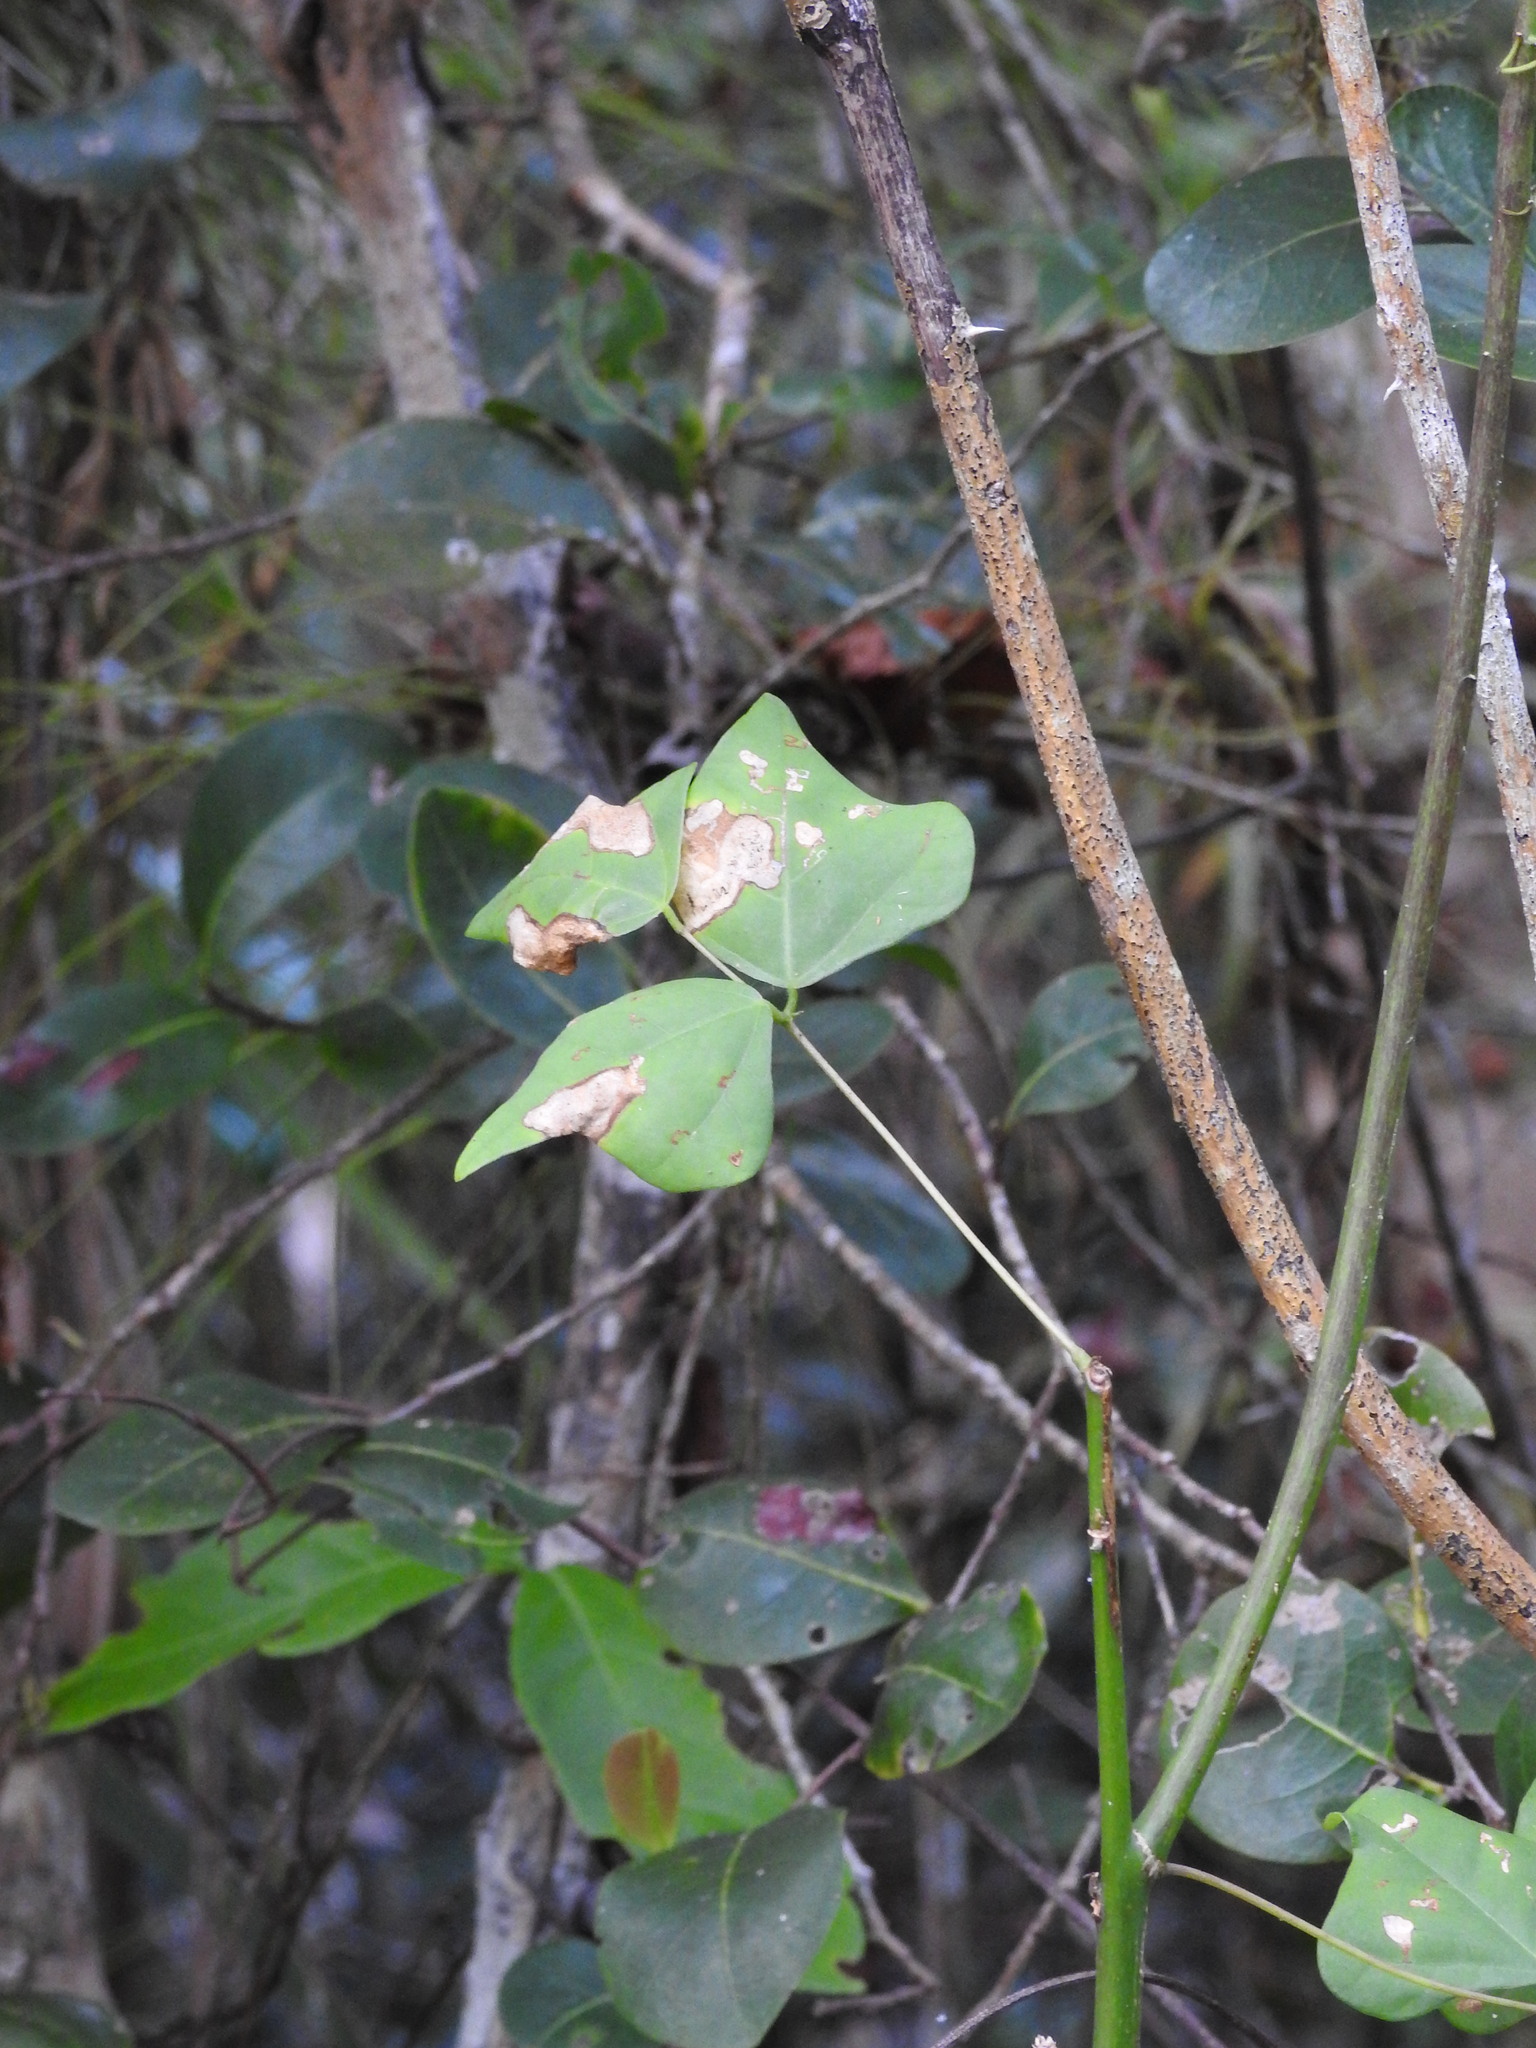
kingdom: Plantae
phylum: Tracheophyta
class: Magnoliopsida
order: Fabales
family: Fabaceae
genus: Erythrina
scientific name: Erythrina herbacea
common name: Coral-bean
